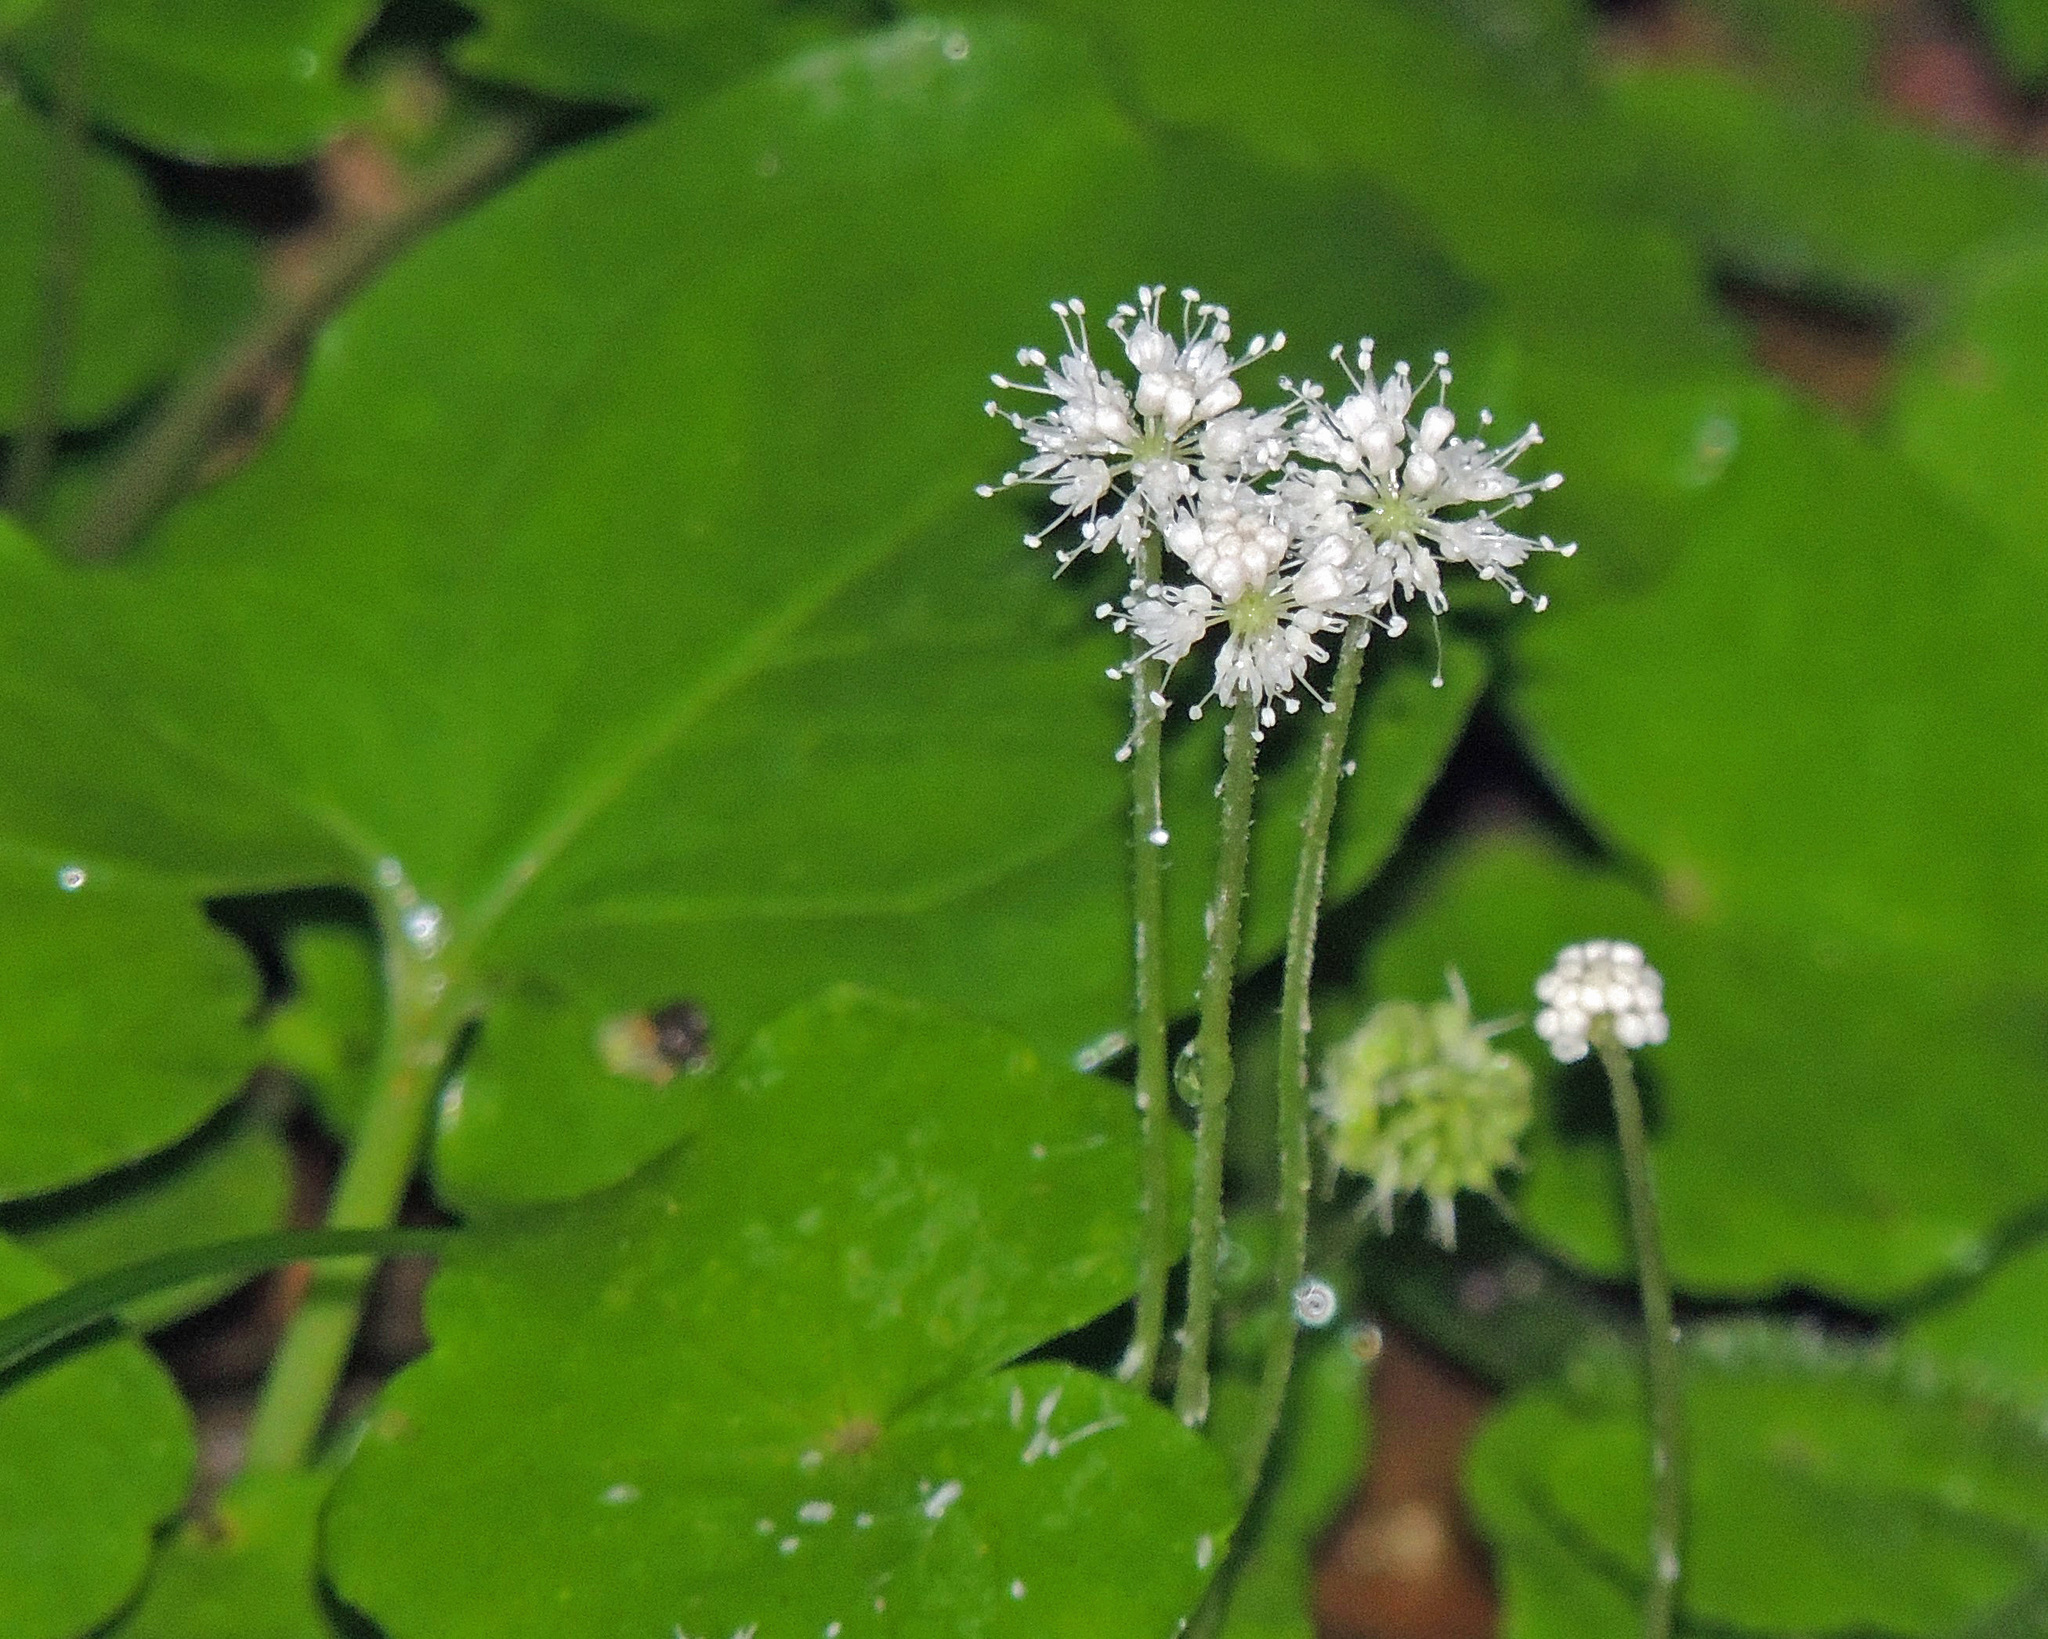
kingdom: Plantae
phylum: Tracheophyta
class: Magnoliopsida
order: Apiales
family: Araliaceae
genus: Hydrocotyle
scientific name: Hydrocotyle leucocephala
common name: Brazilian pennywort
